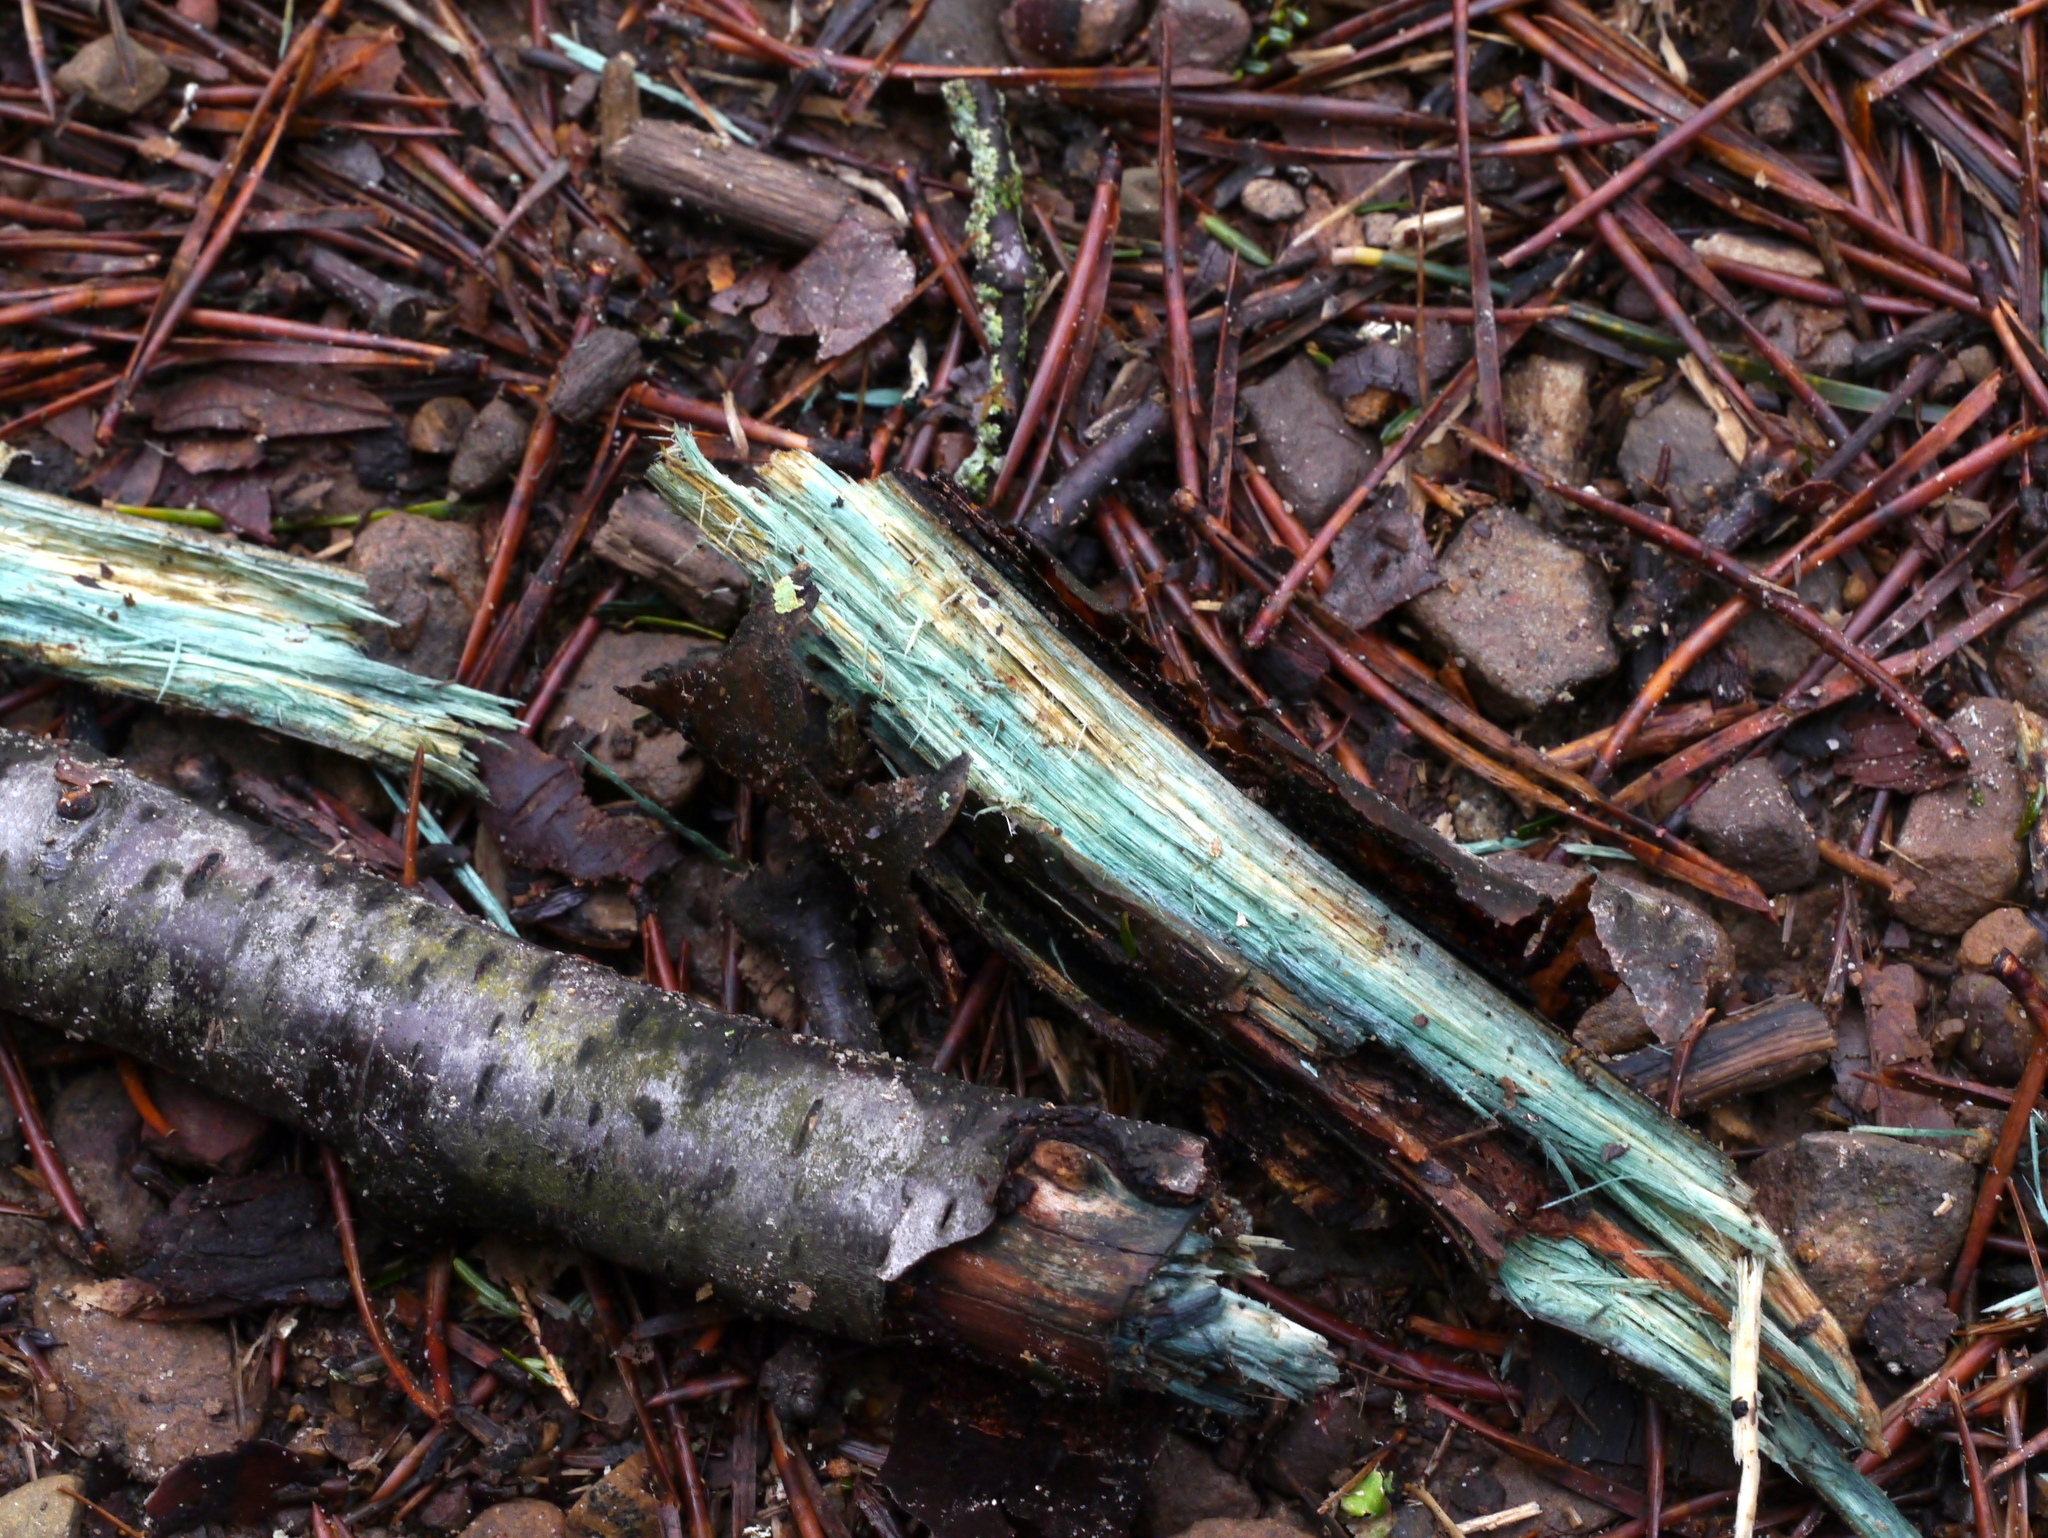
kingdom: Fungi
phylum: Ascomycota
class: Leotiomycetes
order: Helotiales
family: Chlorociboriaceae
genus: Chlorociboria
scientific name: Chlorociboria
